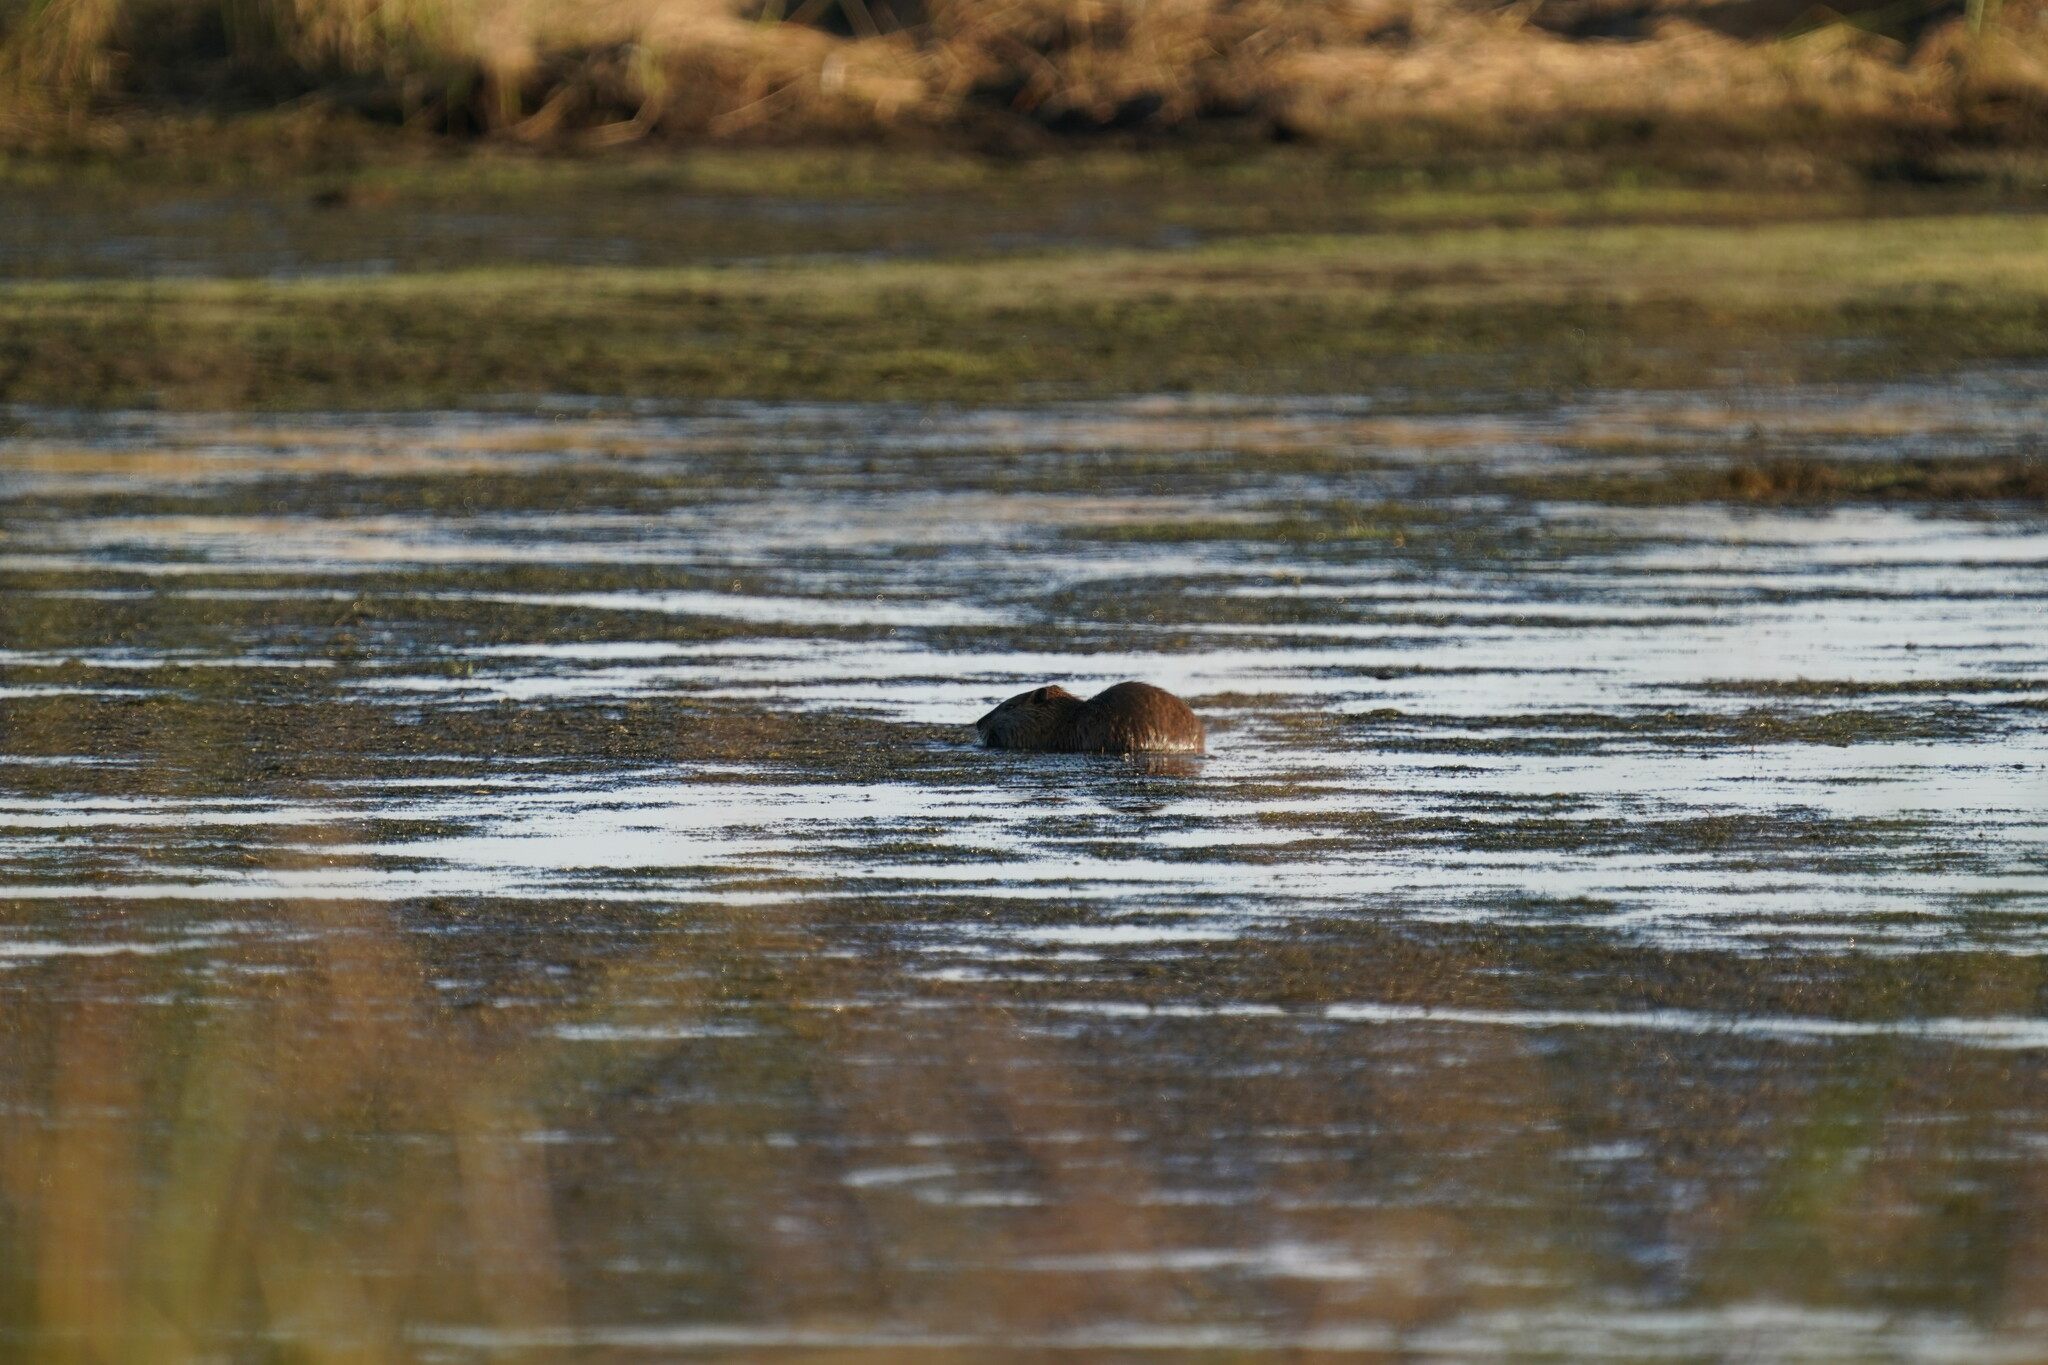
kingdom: Animalia
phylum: Chordata
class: Mammalia
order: Rodentia
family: Myocastoridae
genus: Myocastor
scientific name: Myocastor coypus
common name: Coypu
